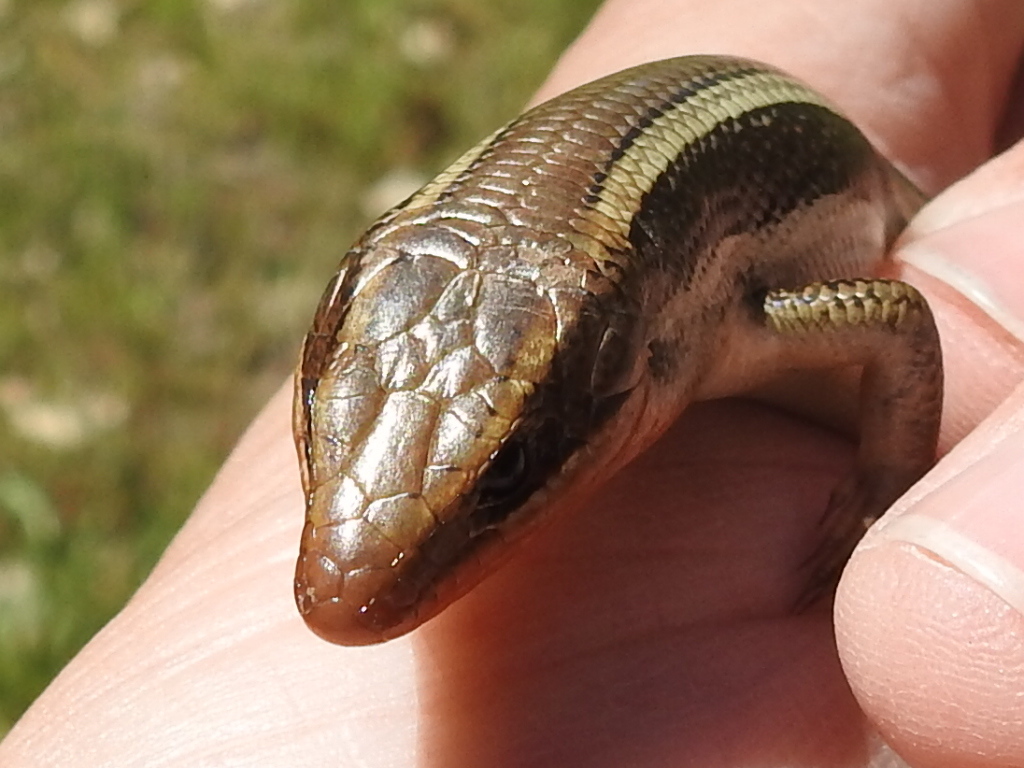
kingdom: Animalia
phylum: Chordata
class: Squamata
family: Scincidae
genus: Plestiodon
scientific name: Plestiodon skiltonianus
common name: Coronado island skink [interparietalis]
